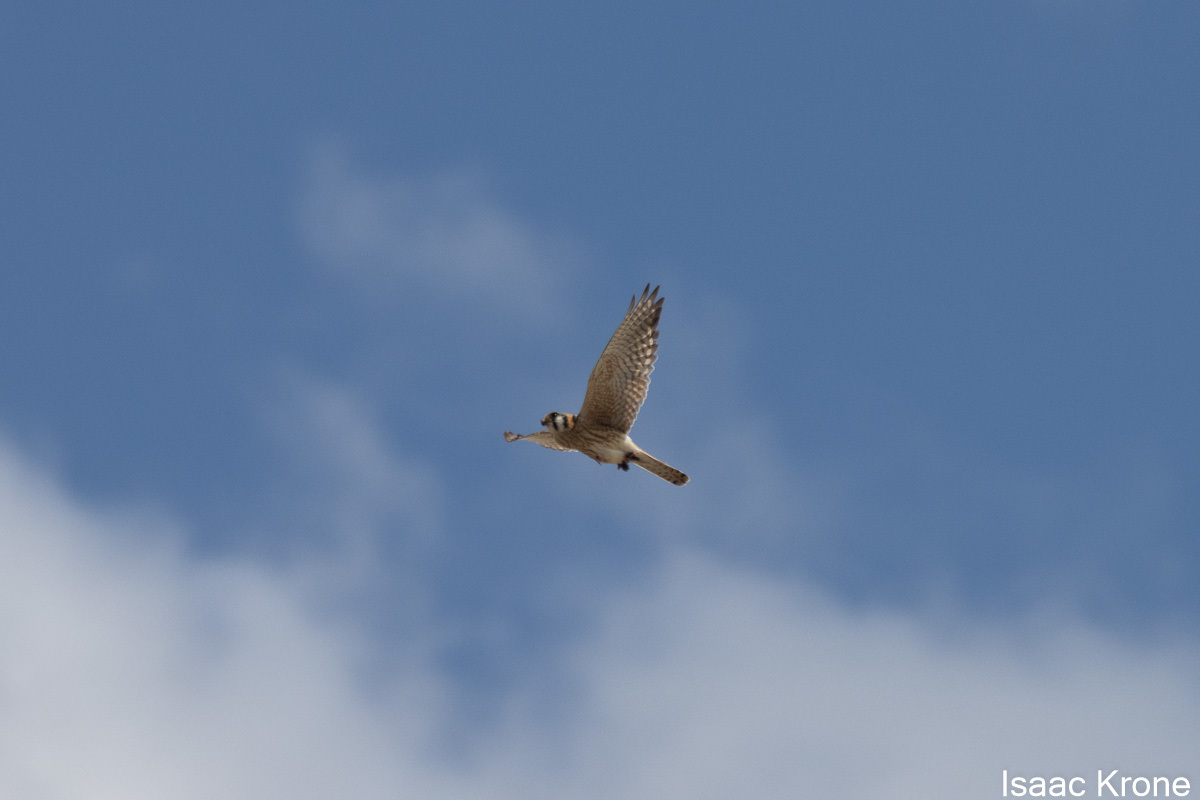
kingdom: Animalia
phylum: Chordata
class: Aves
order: Falconiformes
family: Falconidae
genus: Falco
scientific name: Falco sparverius
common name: American kestrel
